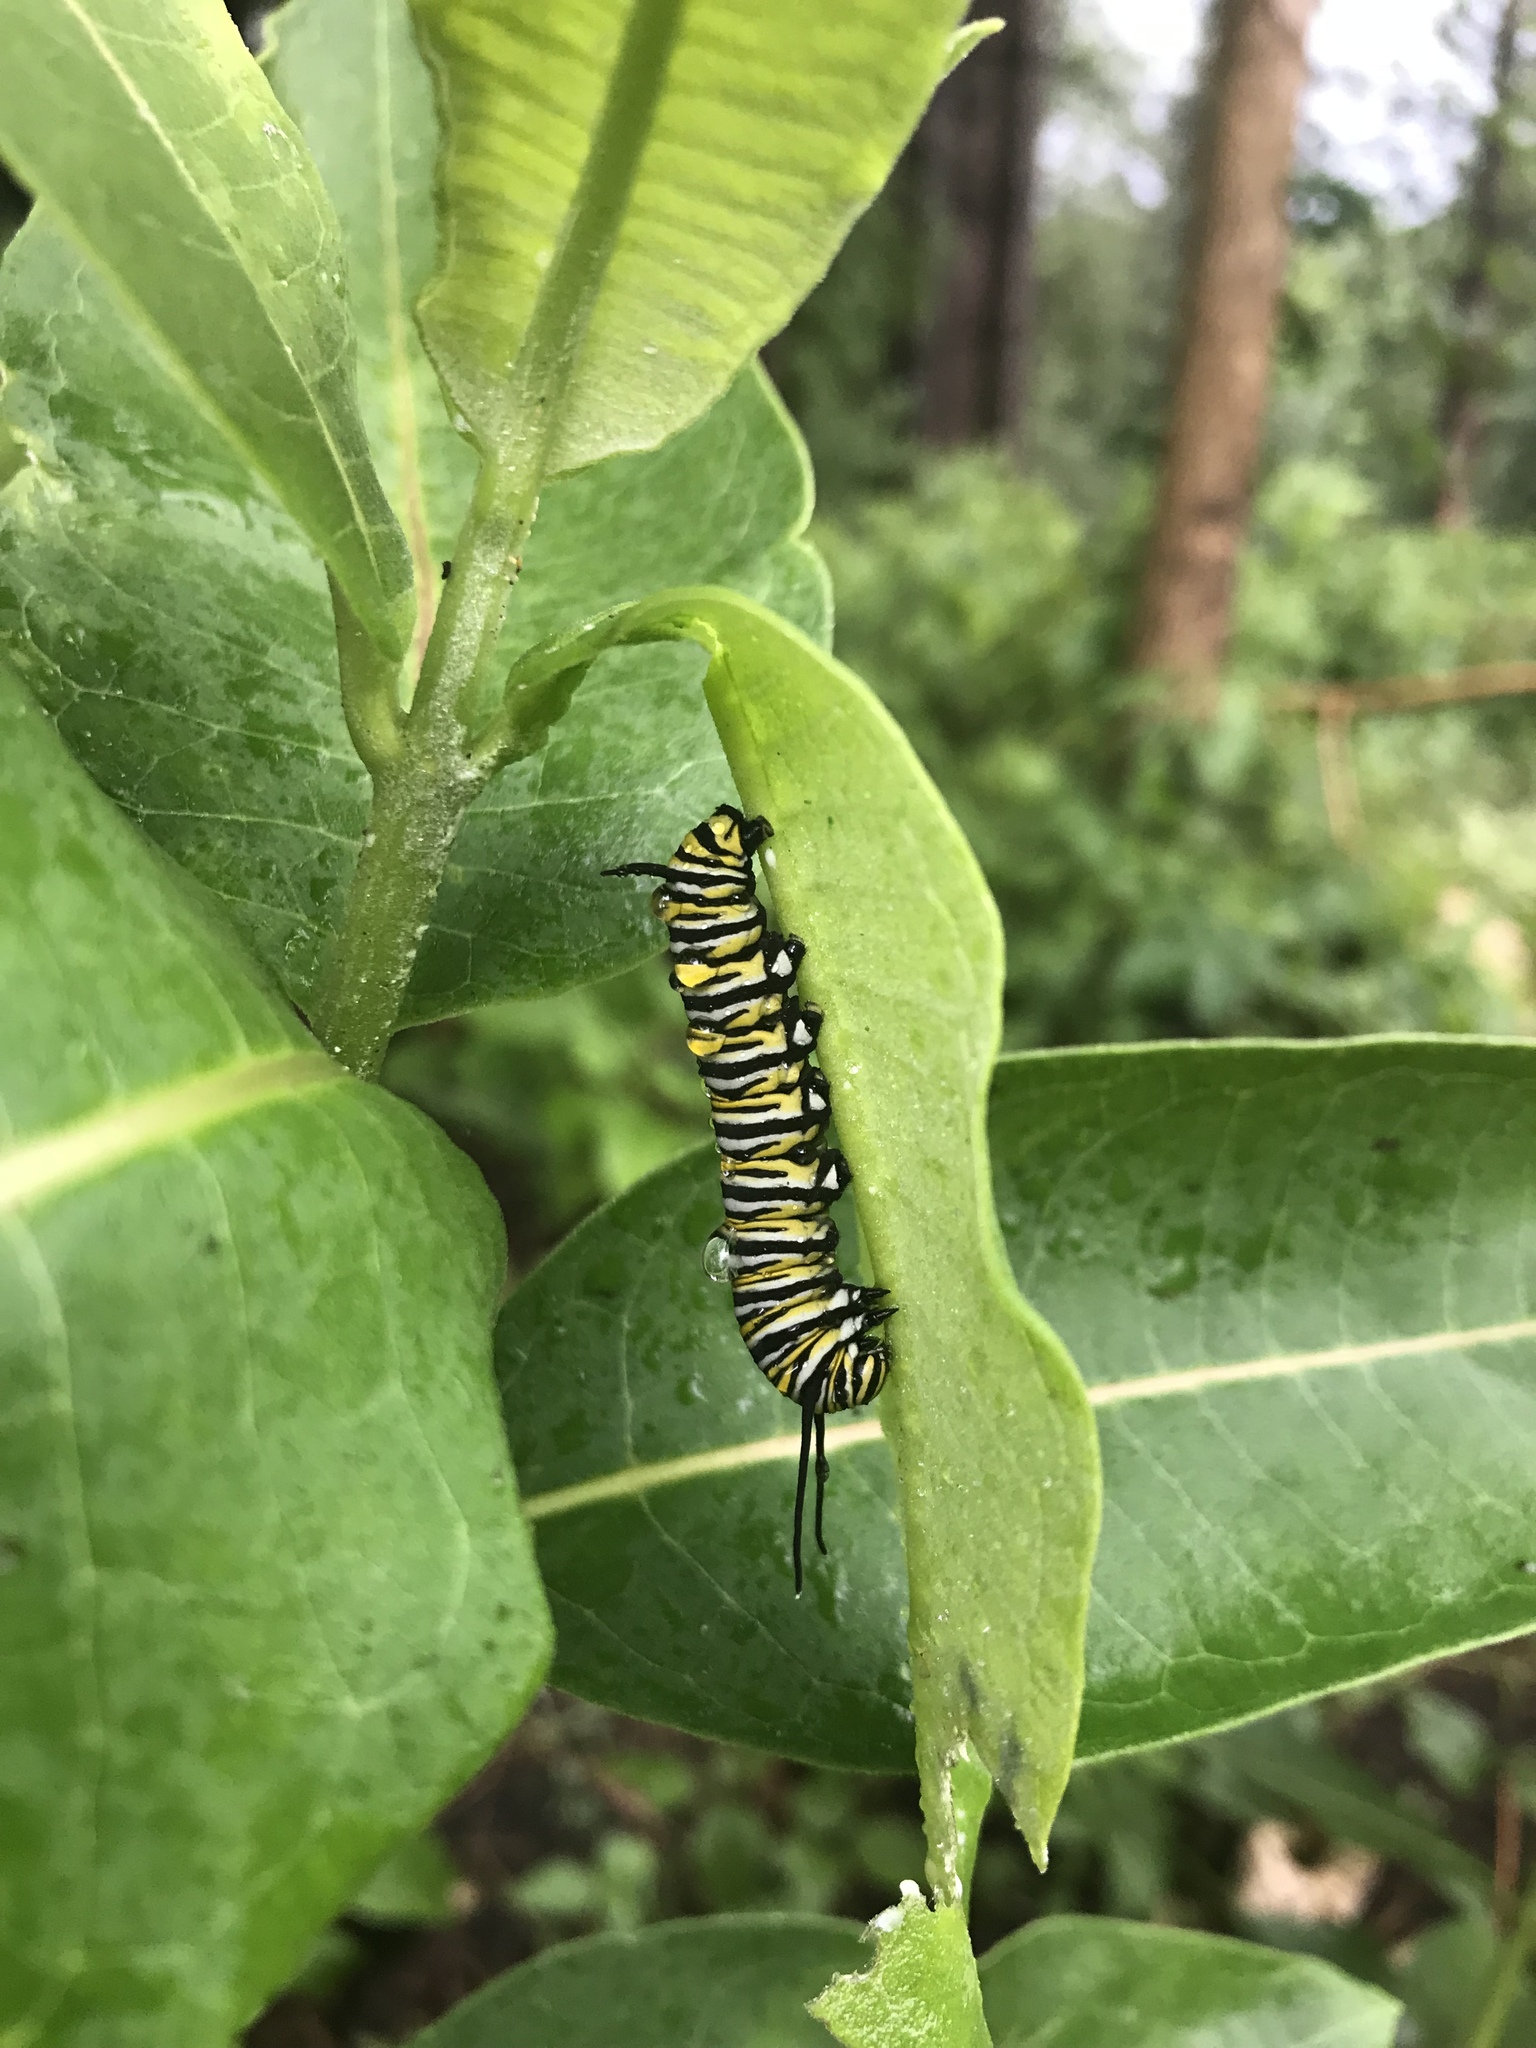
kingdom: Animalia
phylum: Arthropoda
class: Insecta
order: Lepidoptera
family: Nymphalidae
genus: Danaus
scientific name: Danaus plexippus
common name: Monarch
